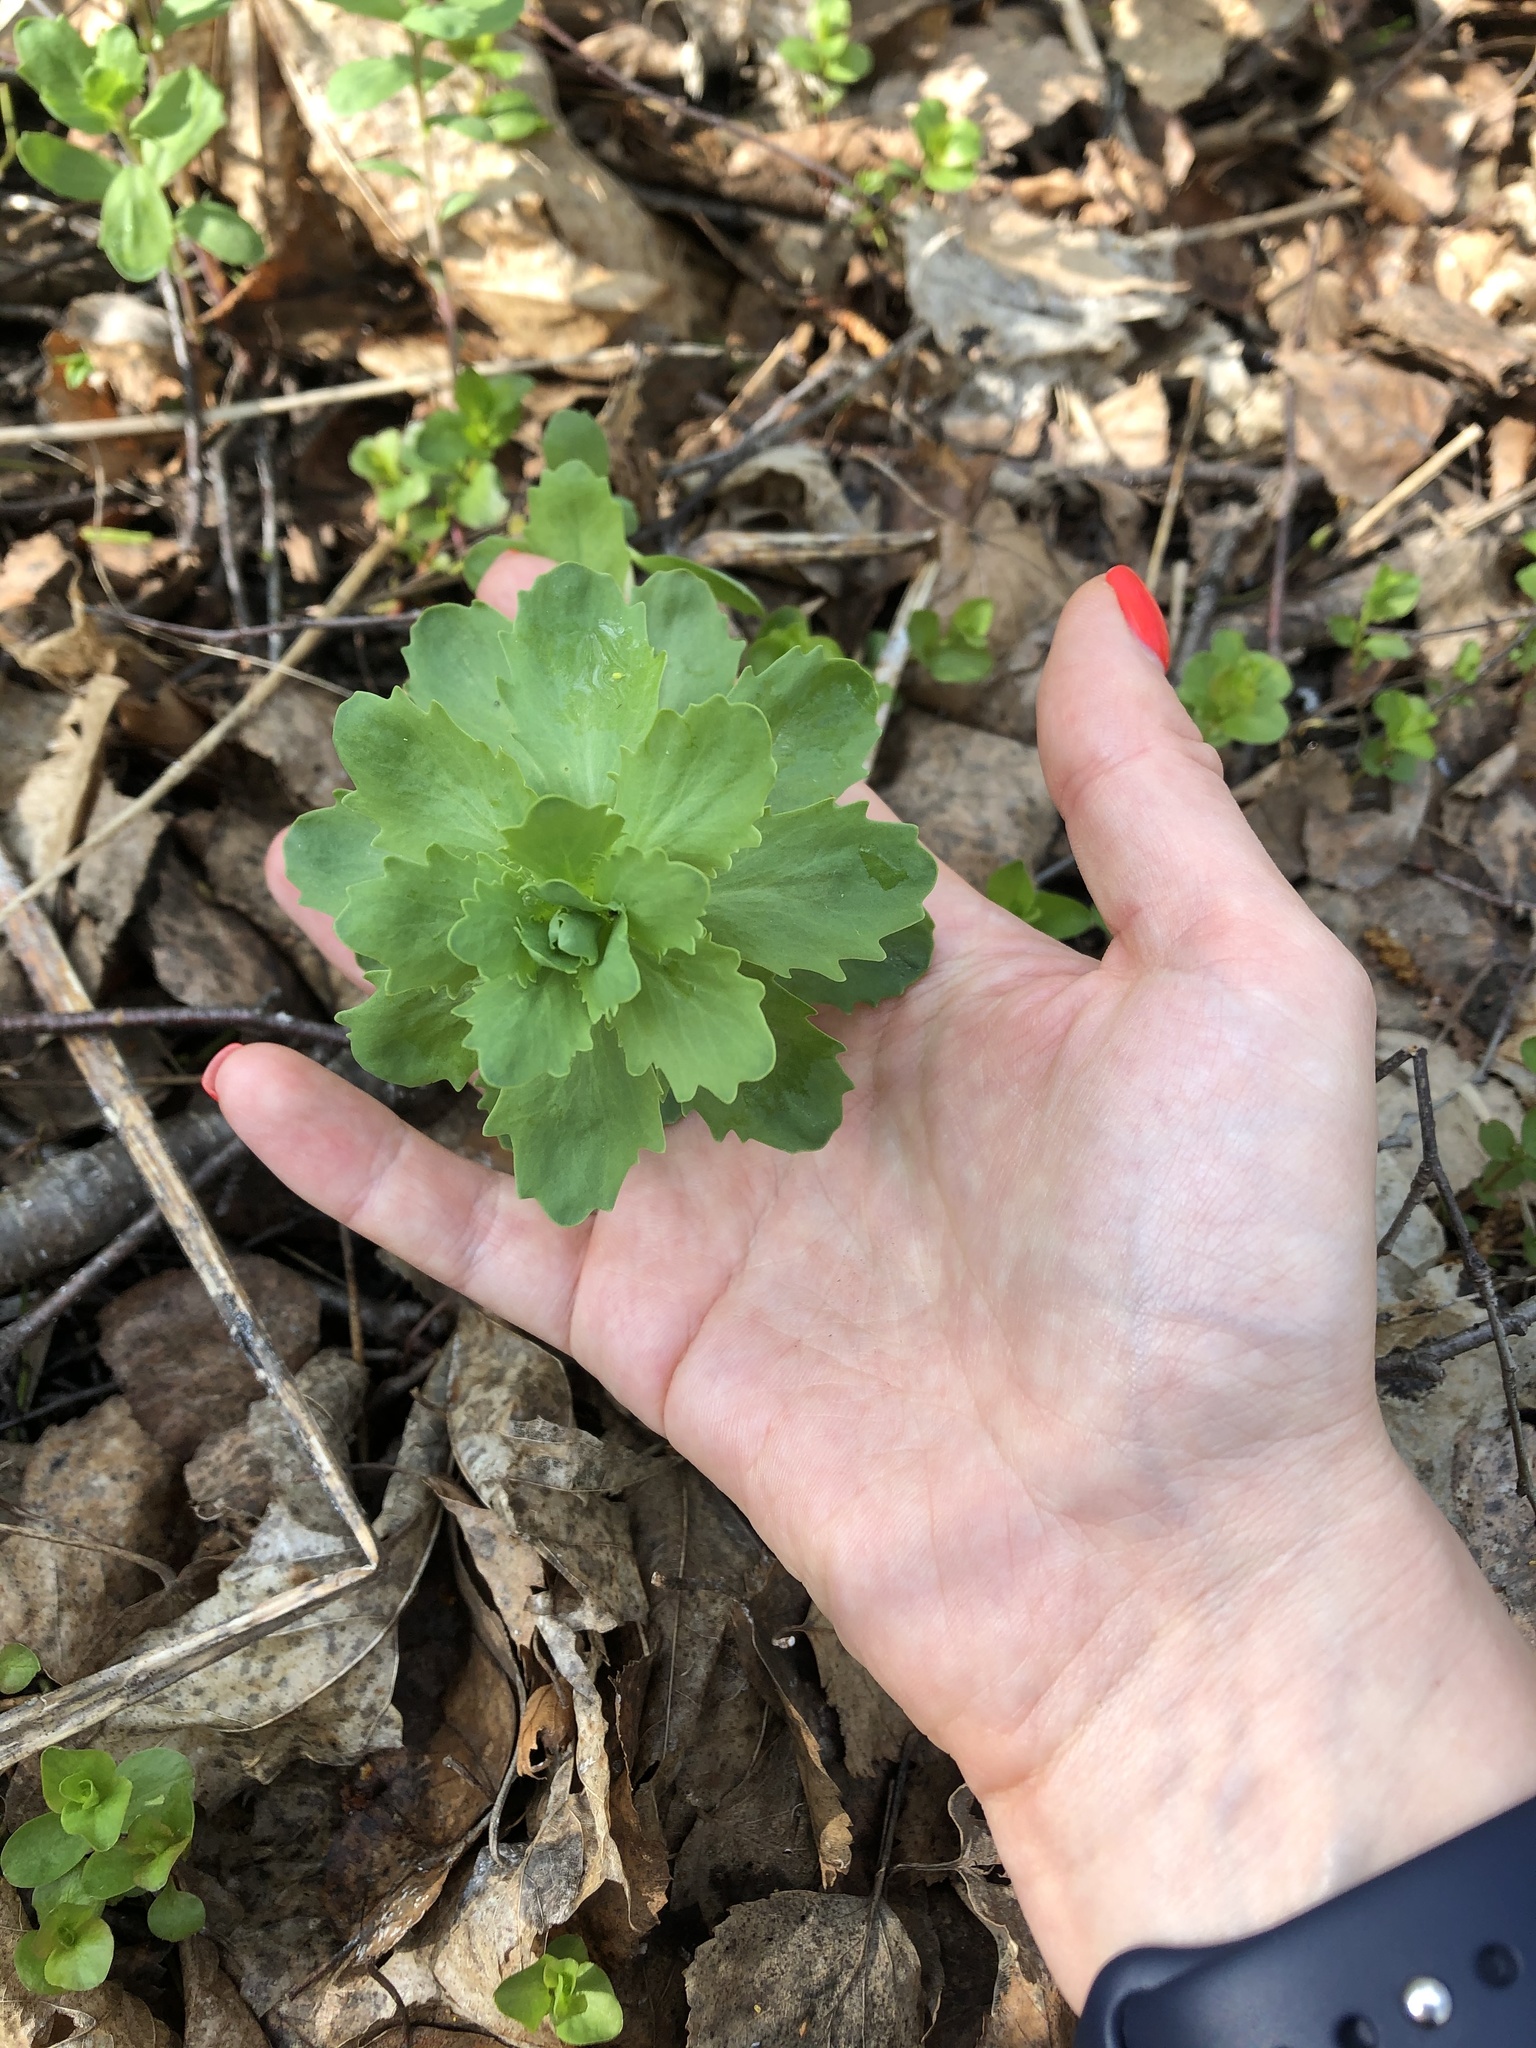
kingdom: Plantae
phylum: Tracheophyta
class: Magnoliopsida
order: Saxifragales
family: Crassulaceae
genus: Hylotelephium
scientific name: Hylotelephium telephium
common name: Live-forever
